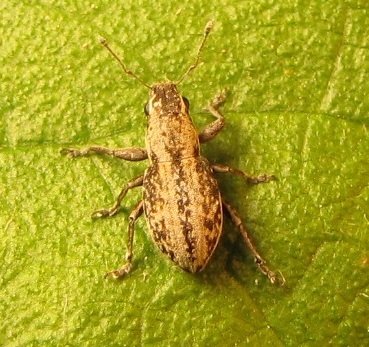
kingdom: Animalia
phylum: Arthropoda
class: Insecta
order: Coleoptera
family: Curculionidae
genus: Atrichonotus
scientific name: Atrichonotus taeniatulus
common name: Small lucerne weevil
